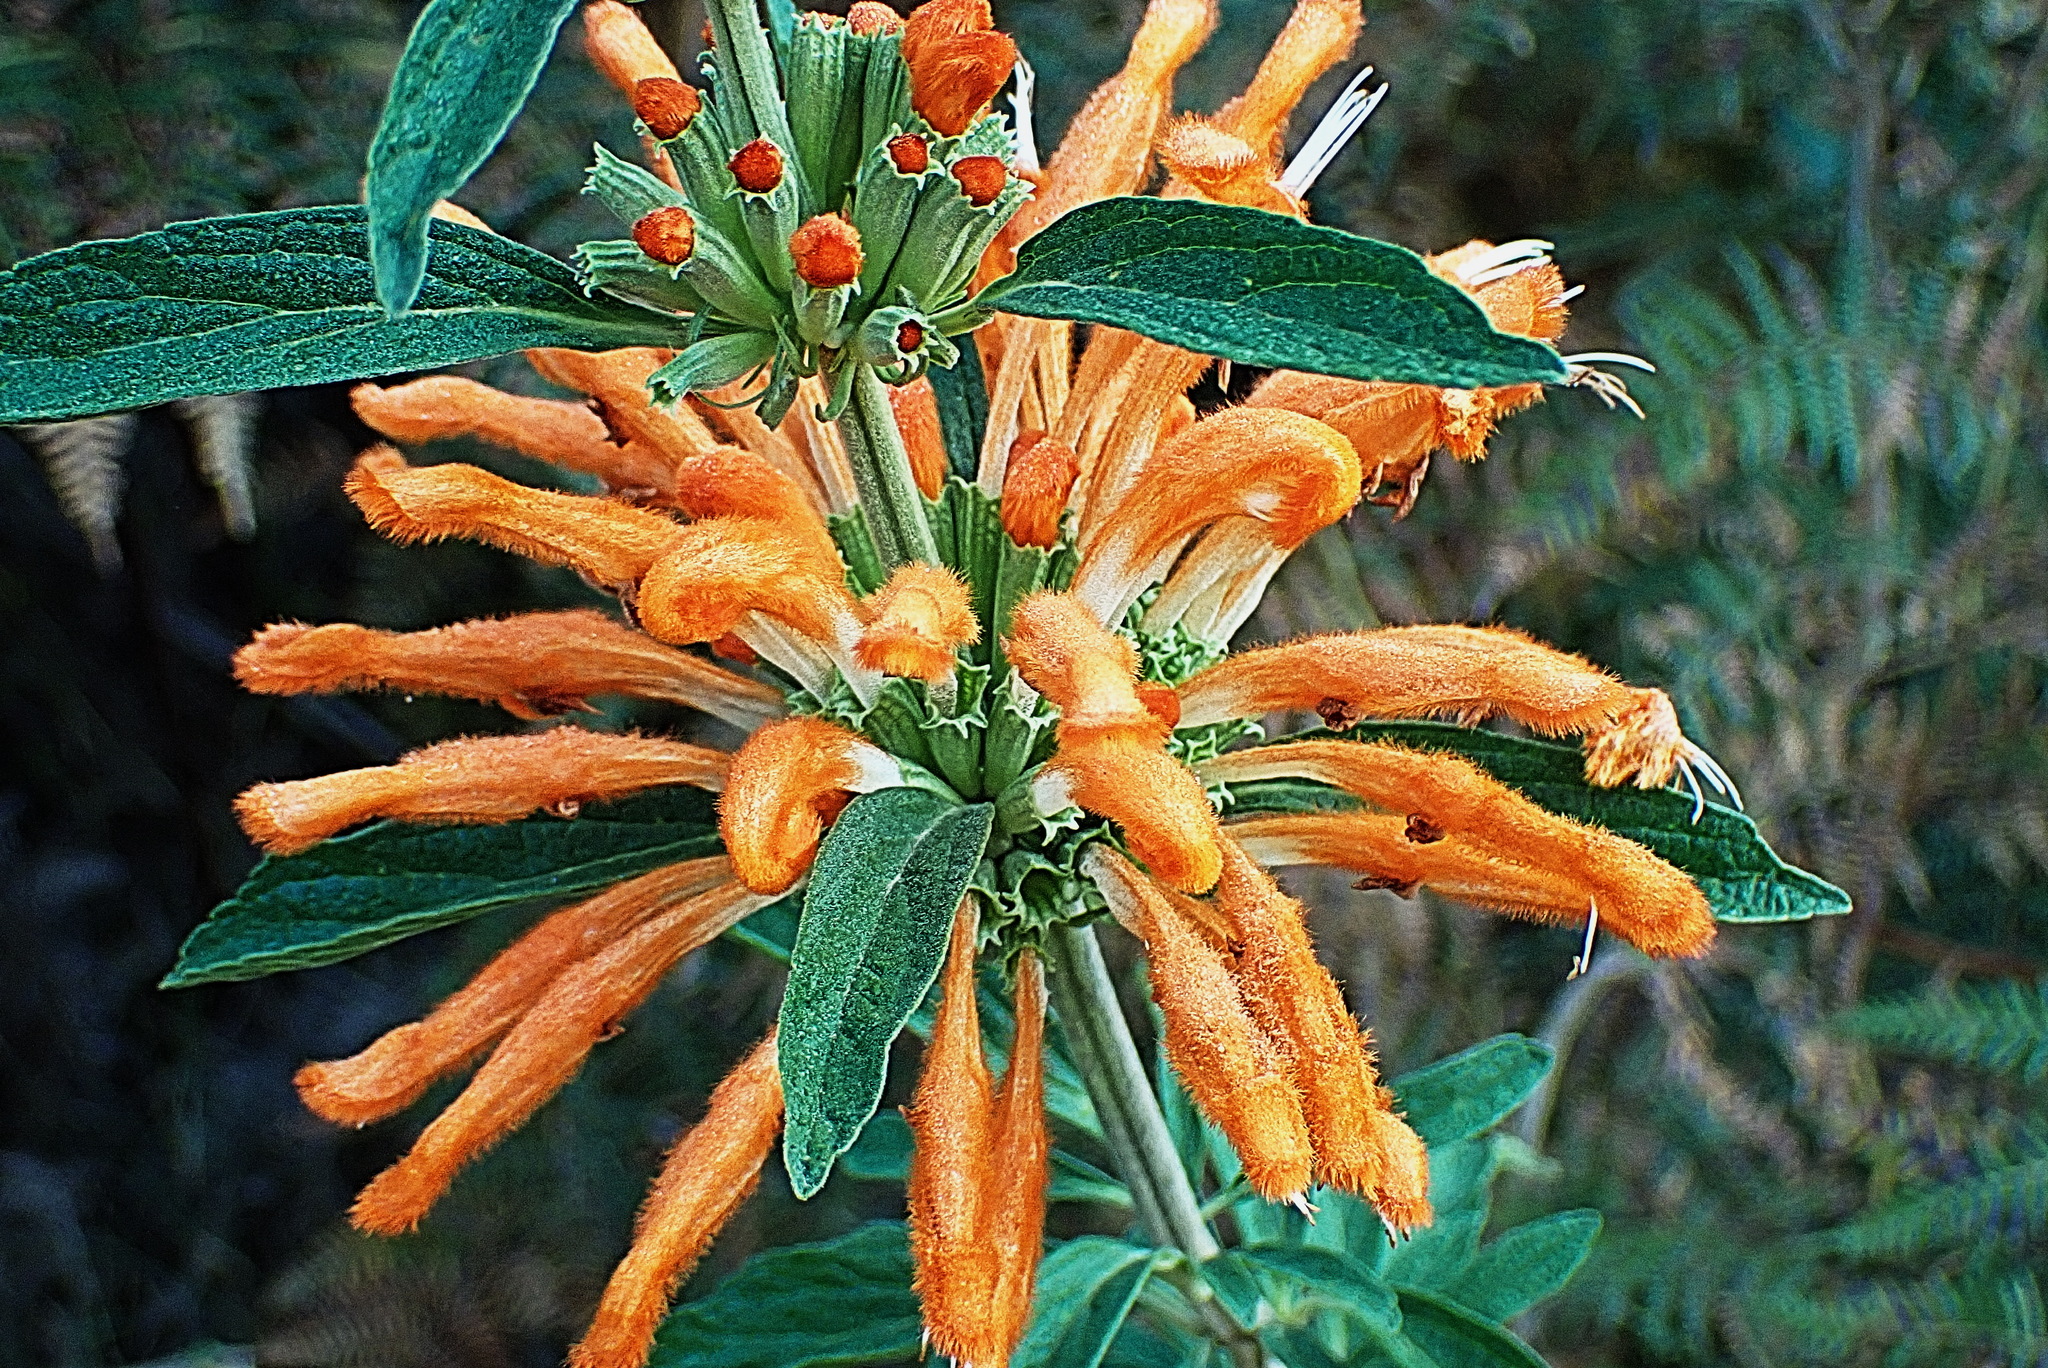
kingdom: Plantae
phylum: Tracheophyta
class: Magnoliopsida
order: Lamiales
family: Lamiaceae
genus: Leonotis
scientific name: Leonotis leonurus
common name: Lion's ear
